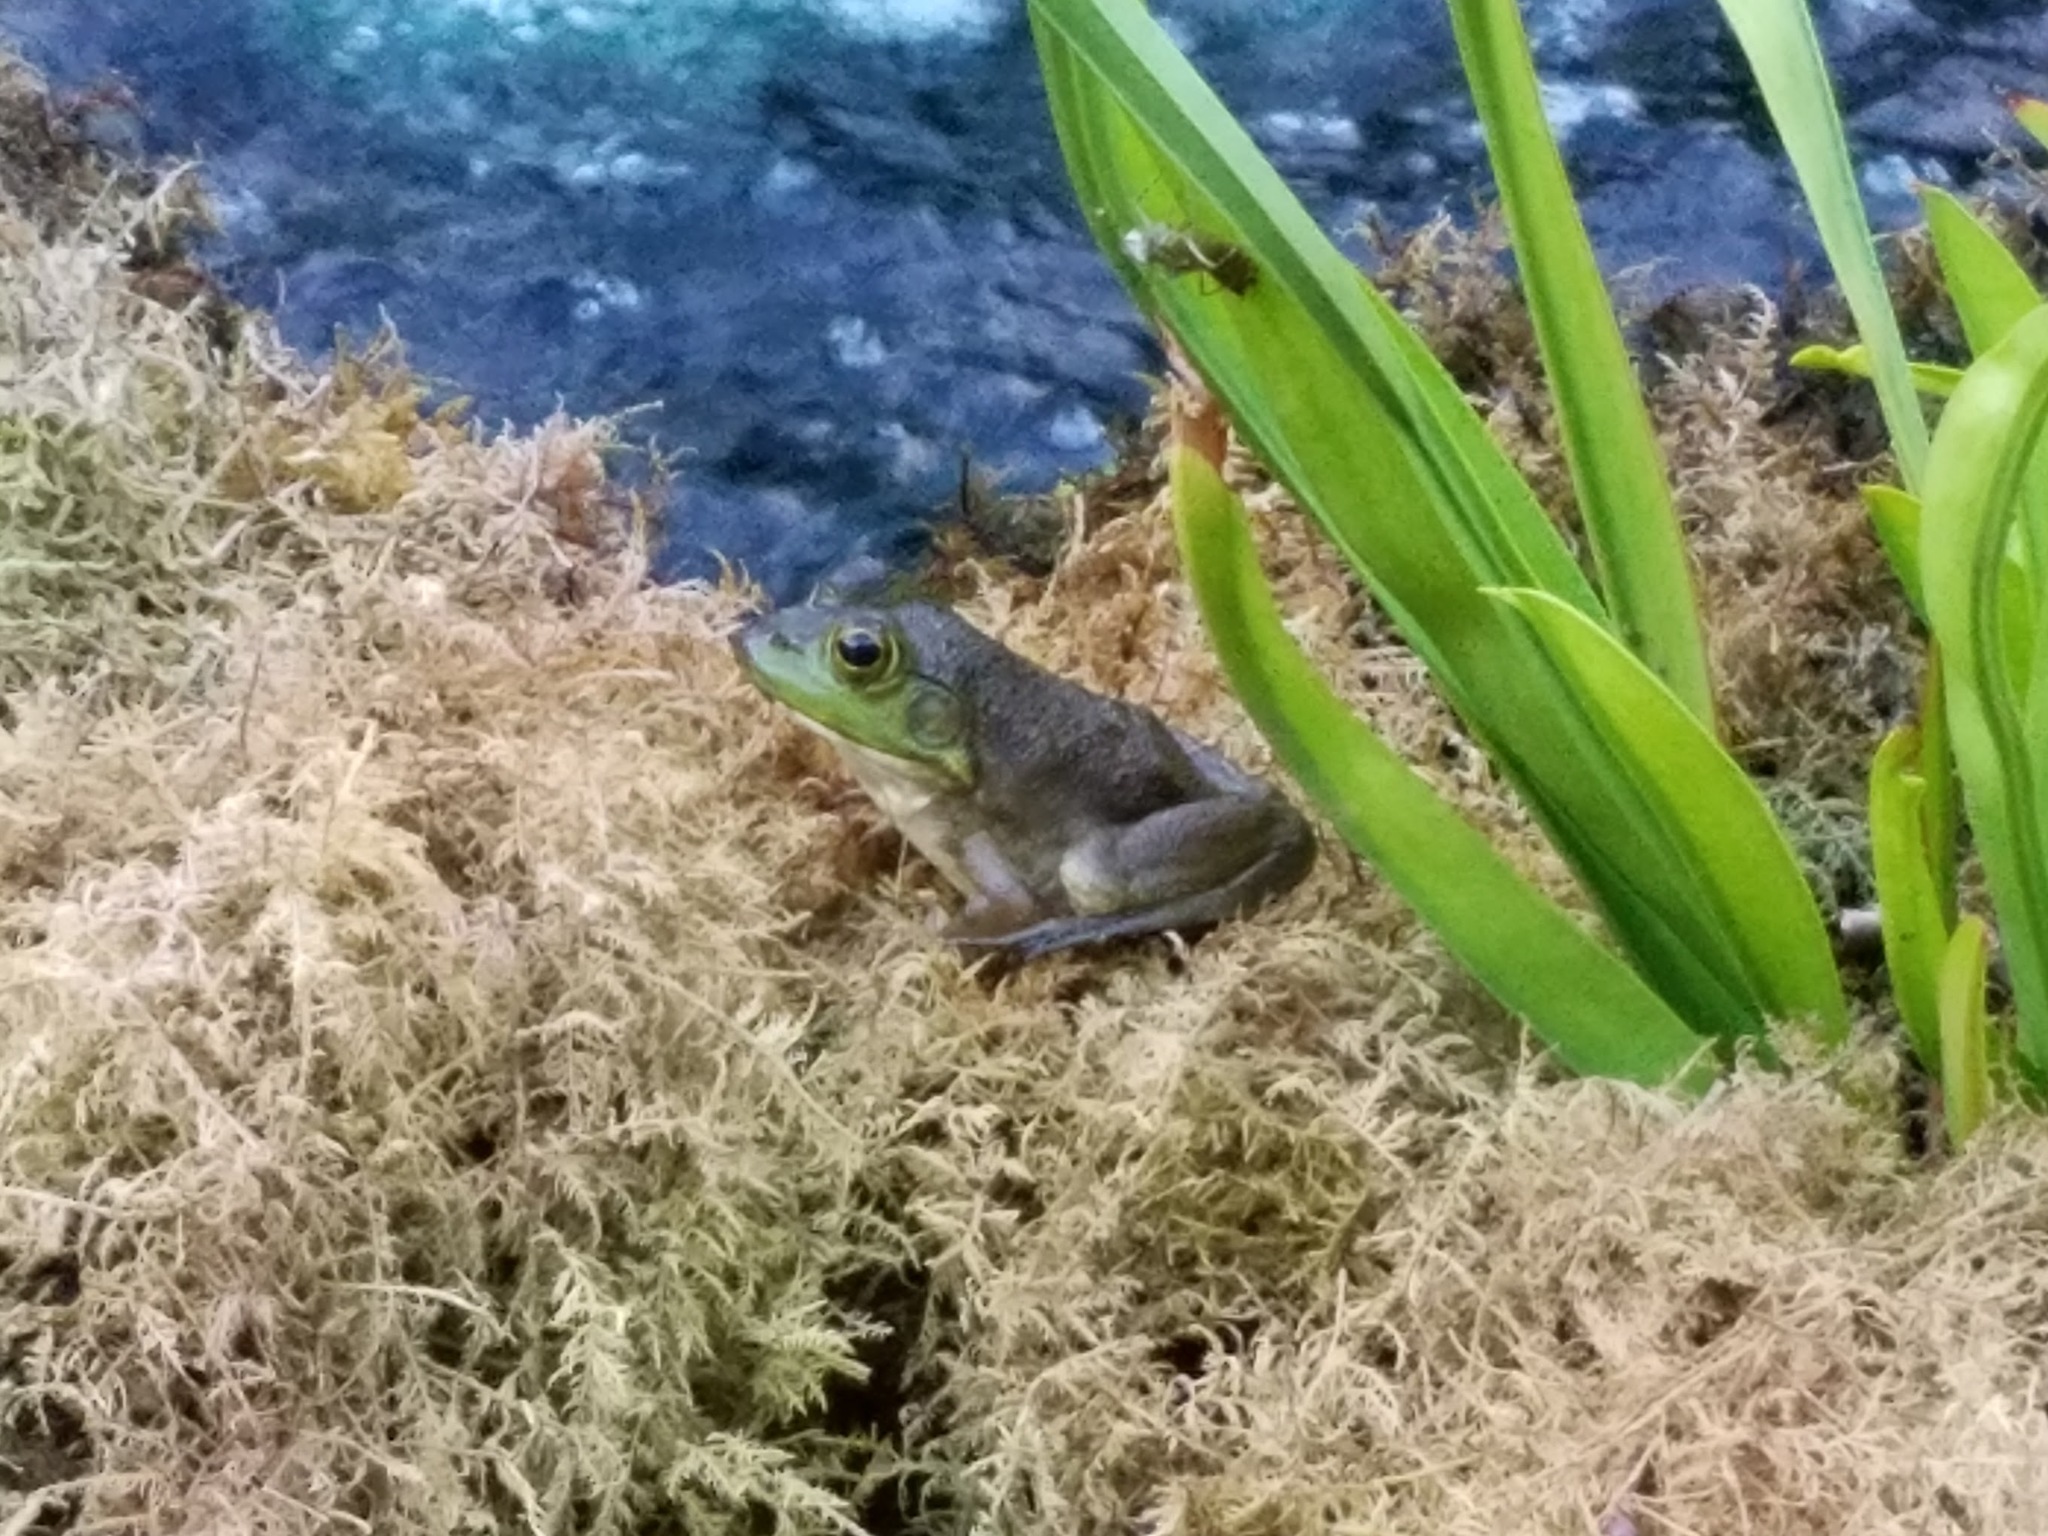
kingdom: Animalia
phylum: Chordata
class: Amphibia
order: Anura
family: Ranidae
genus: Lithobates
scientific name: Lithobates catesbeianus
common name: American bullfrog
